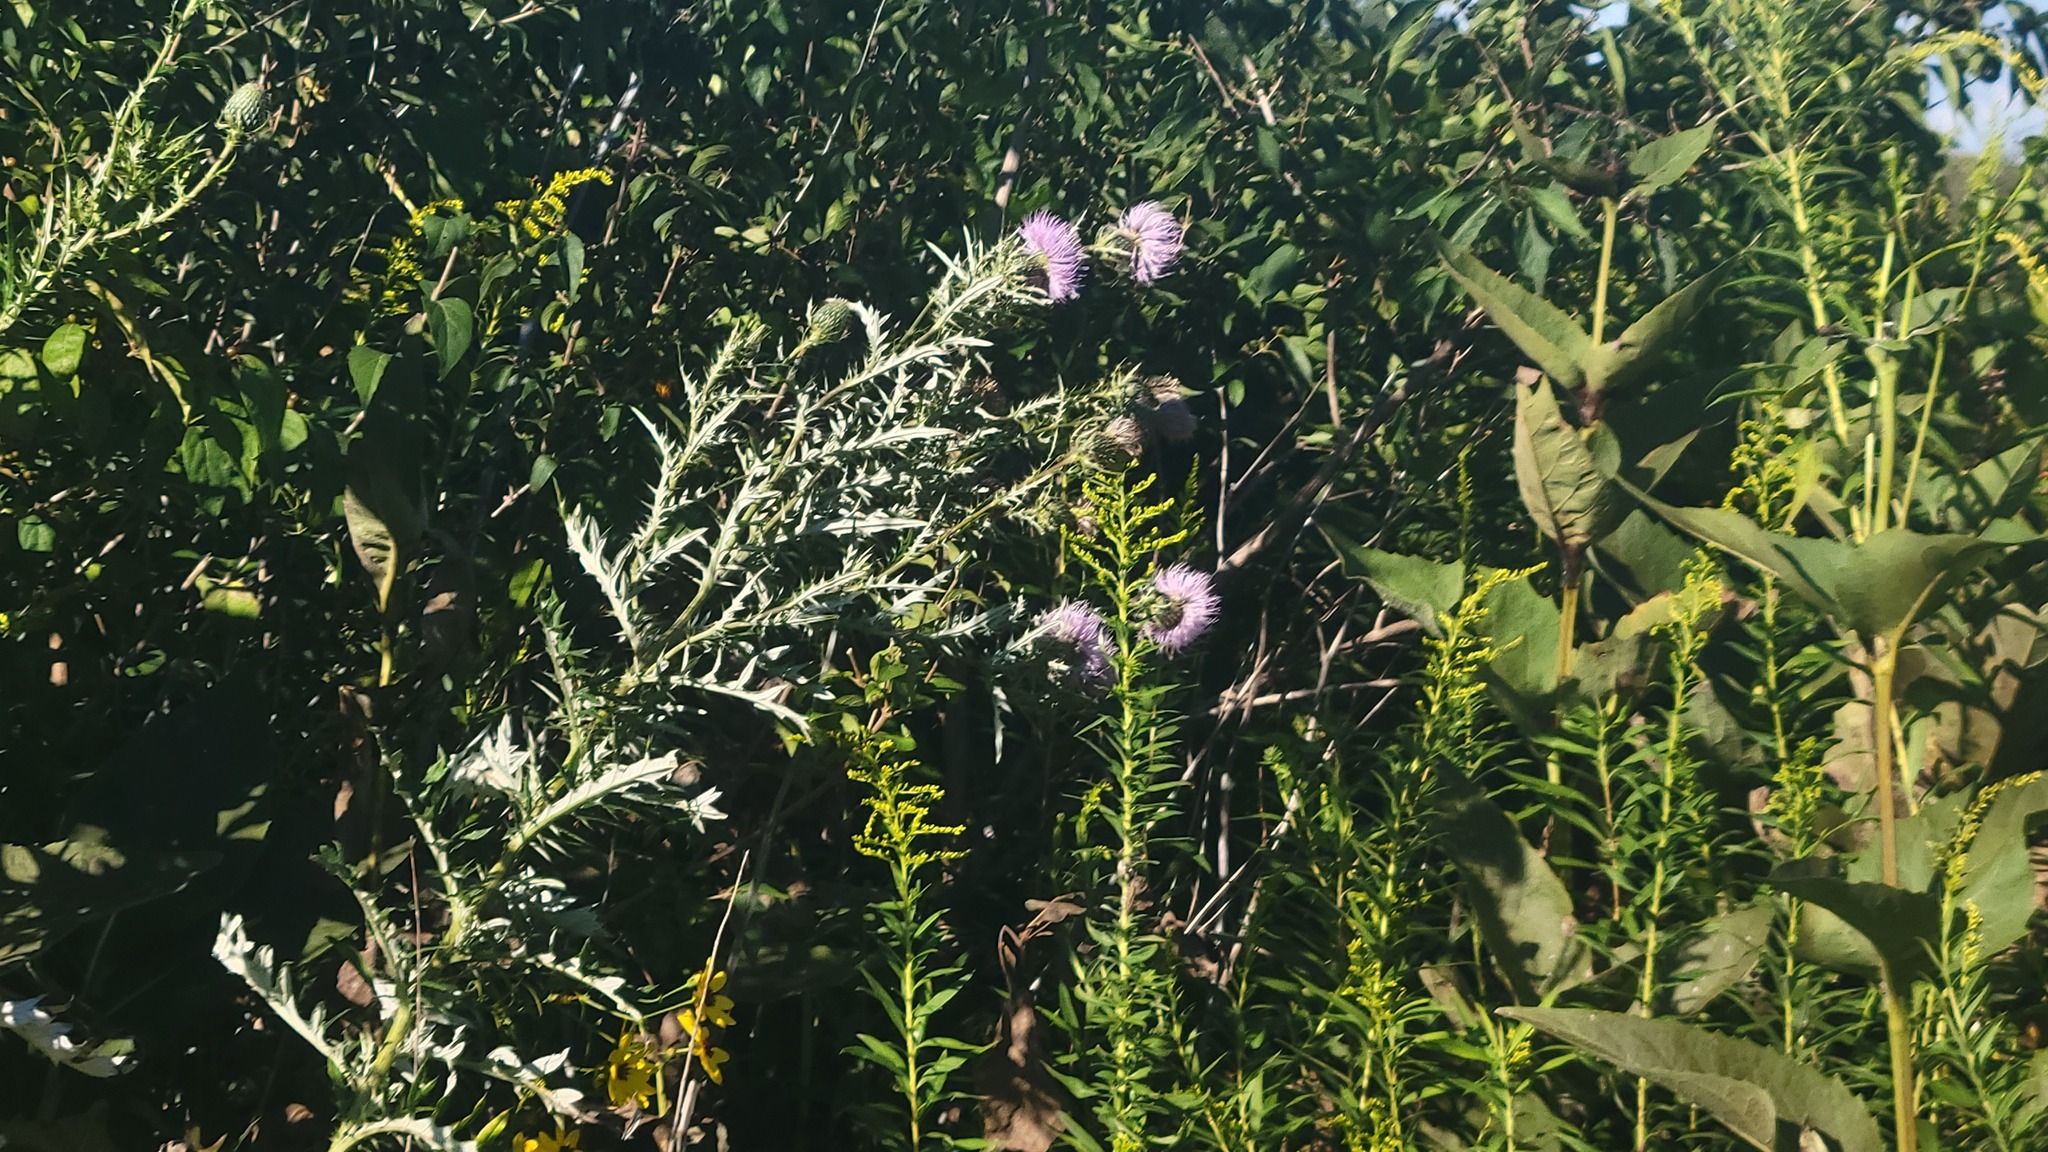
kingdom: Plantae
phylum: Tracheophyta
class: Magnoliopsida
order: Asterales
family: Asteraceae
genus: Cirsium
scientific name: Cirsium discolor
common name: Field thistle
